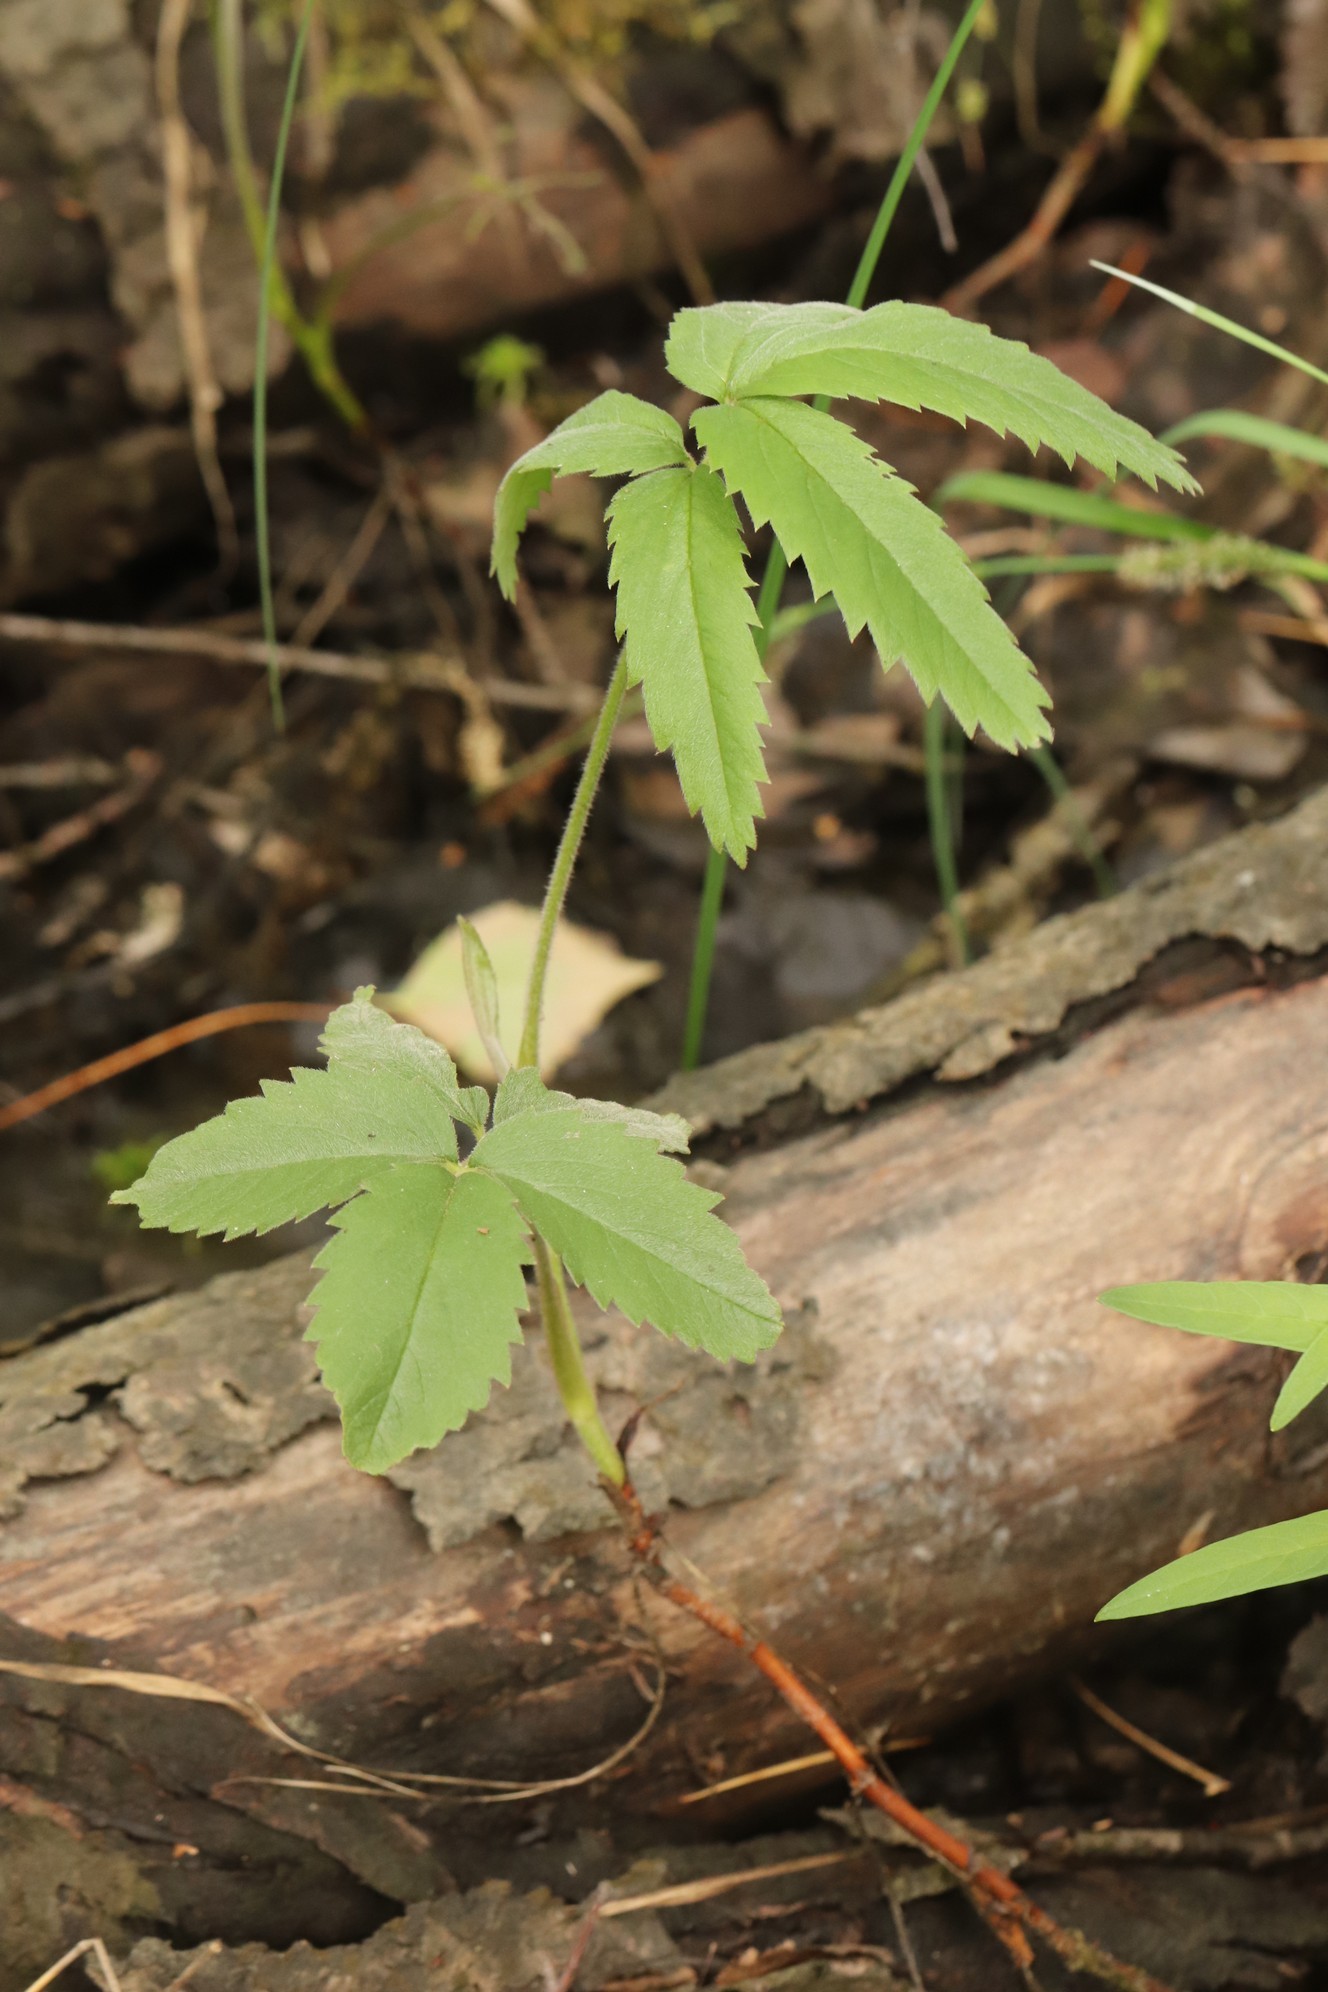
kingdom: Plantae
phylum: Tracheophyta
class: Magnoliopsida
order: Rosales
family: Rosaceae
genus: Comarum
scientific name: Comarum palustre
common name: Marsh cinquefoil
